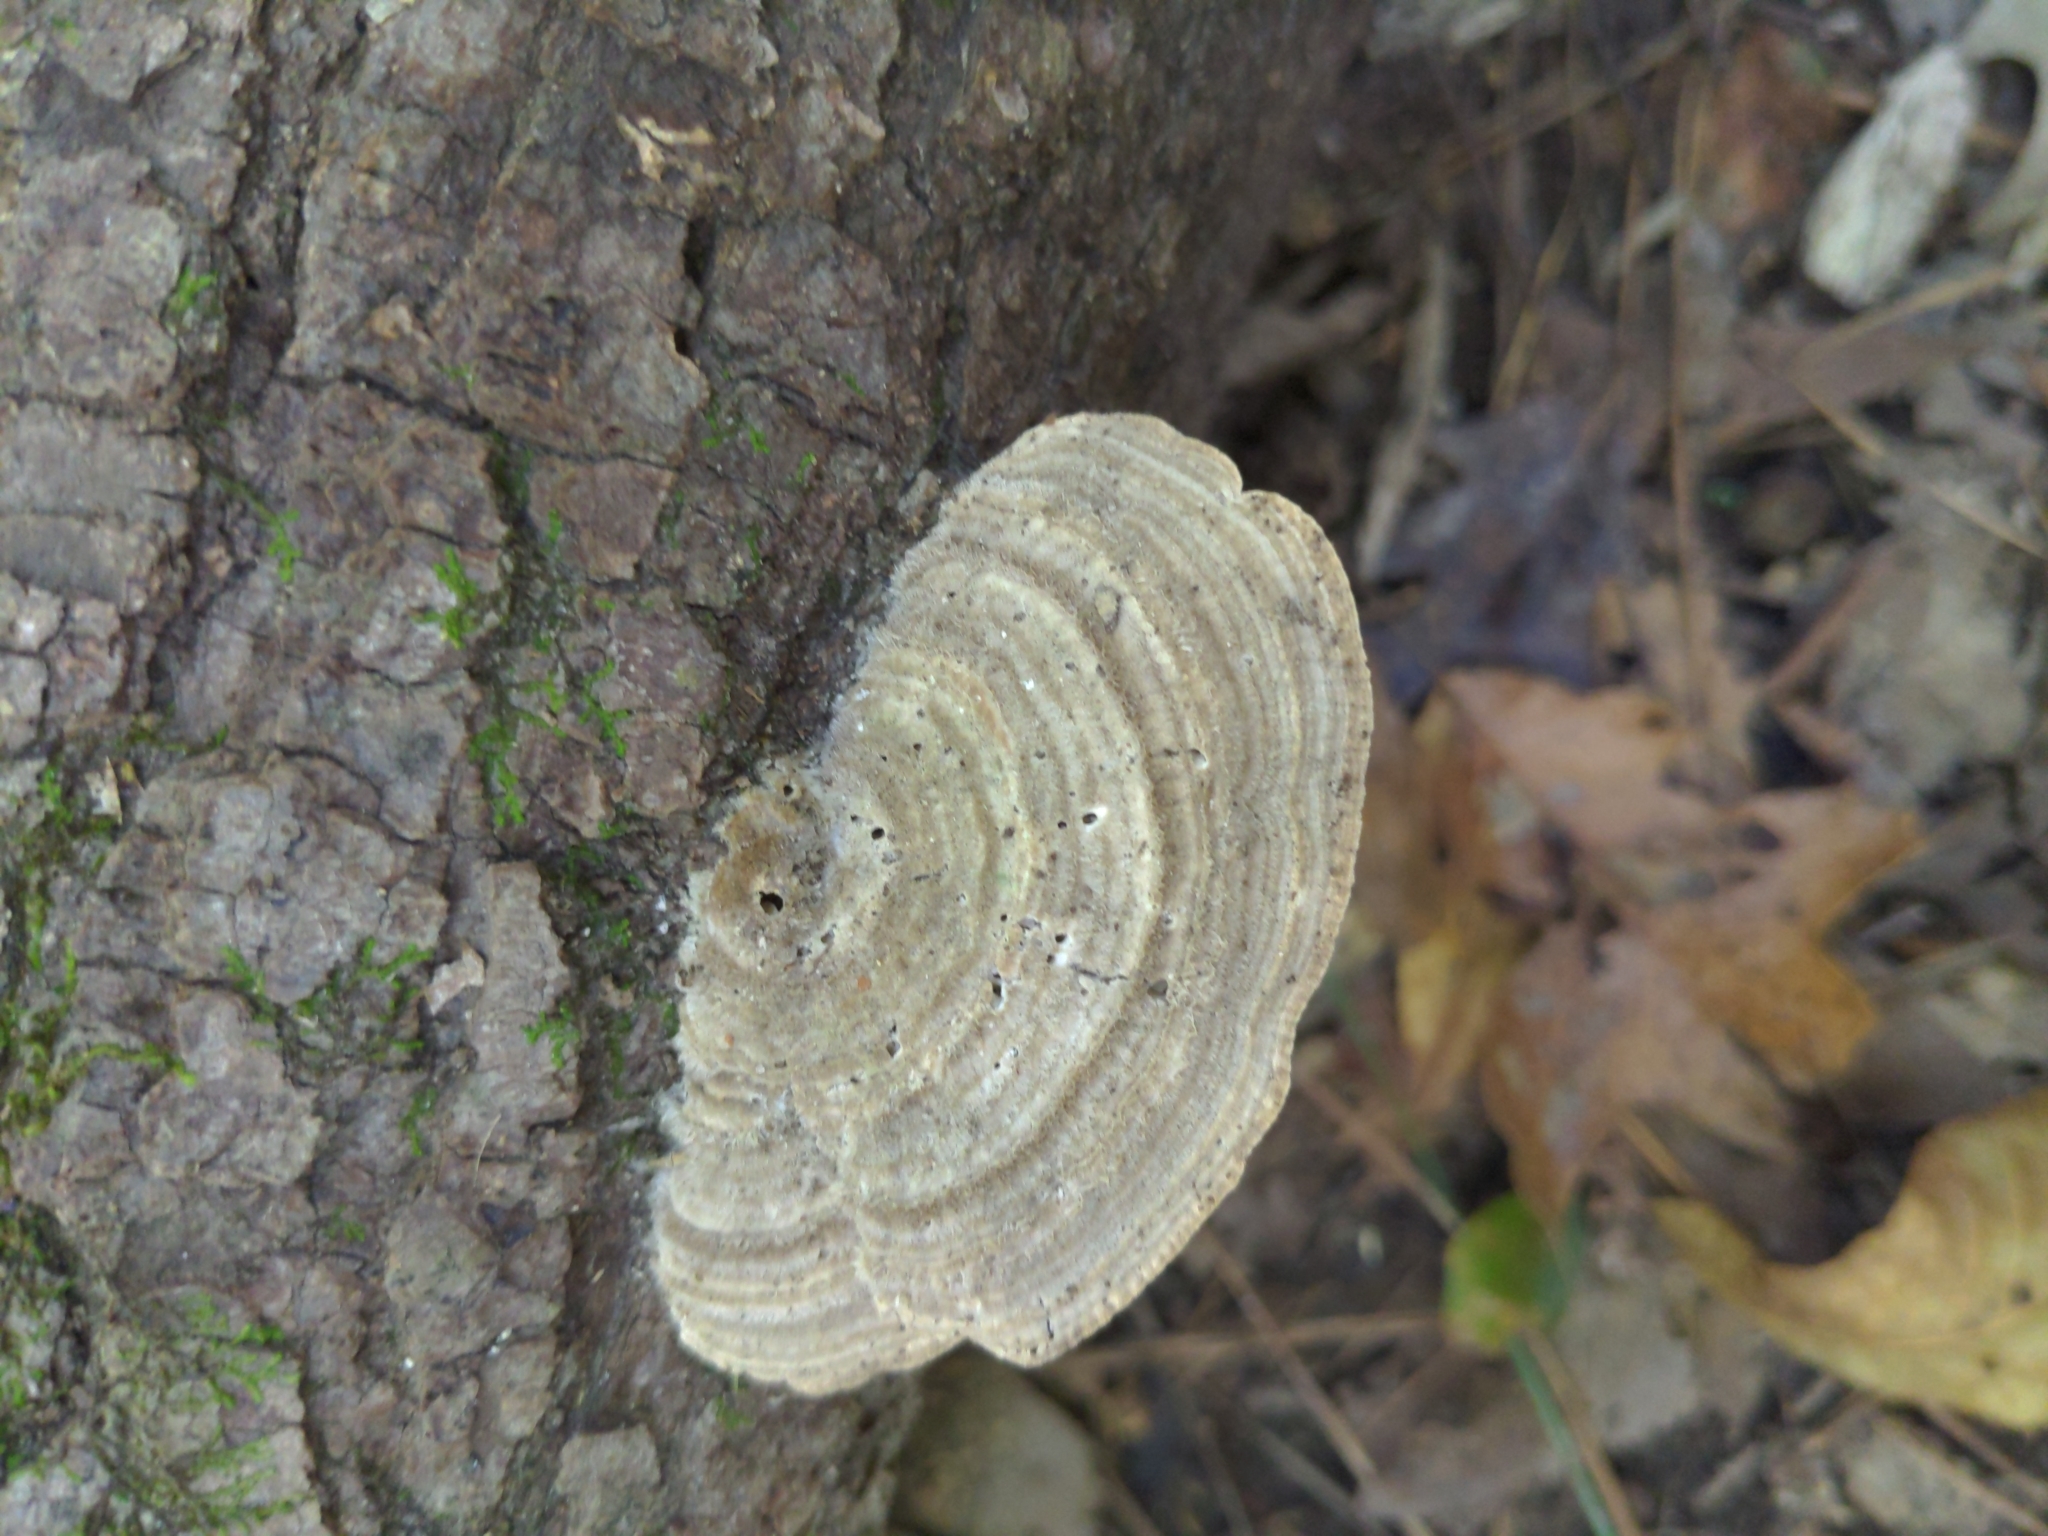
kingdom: Fungi
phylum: Basidiomycota
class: Agaricomycetes
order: Polyporales
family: Polyporaceae
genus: Lenzites
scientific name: Lenzites betulinus
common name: Birch mazegill
